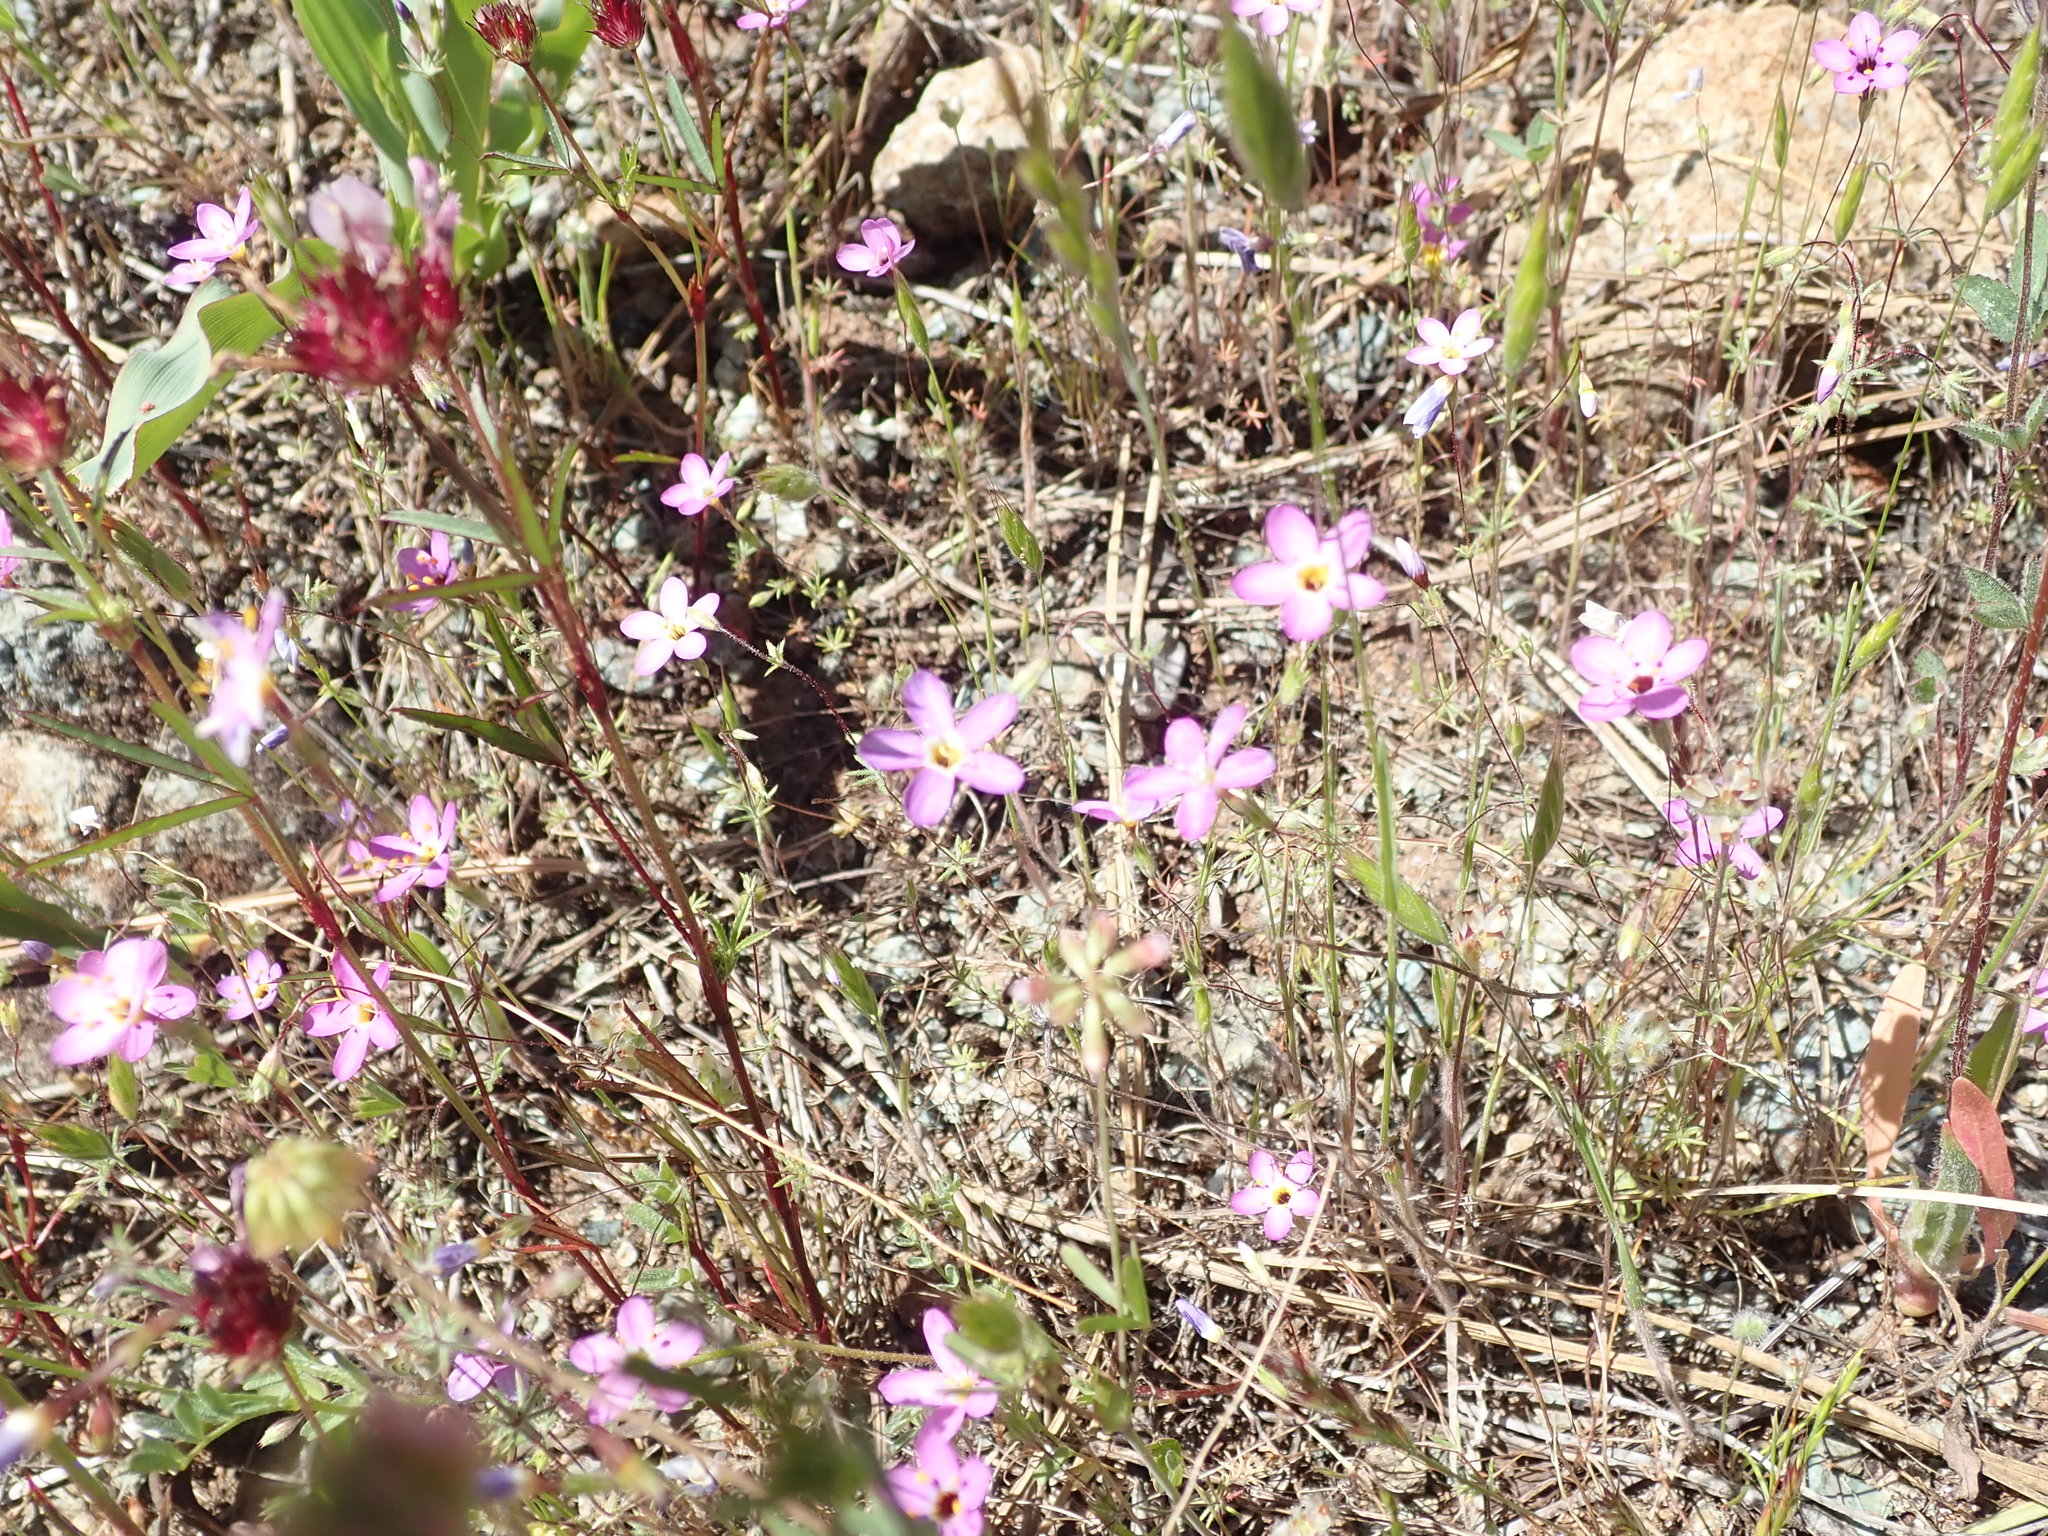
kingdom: Plantae
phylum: Tracheophyta
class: Magnoliopsida
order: Ericales
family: Polemoniaceae
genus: Leptosiphon
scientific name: Leptosiphon ambiguus
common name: Serpentine linanthus
